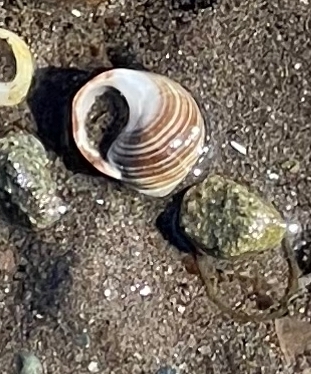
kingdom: Animalia
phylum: Mollusca
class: Gastropoda
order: Littorinimorpha
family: Littorinidae
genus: Littorina
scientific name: Littorina littorea
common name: Common periwinkle
